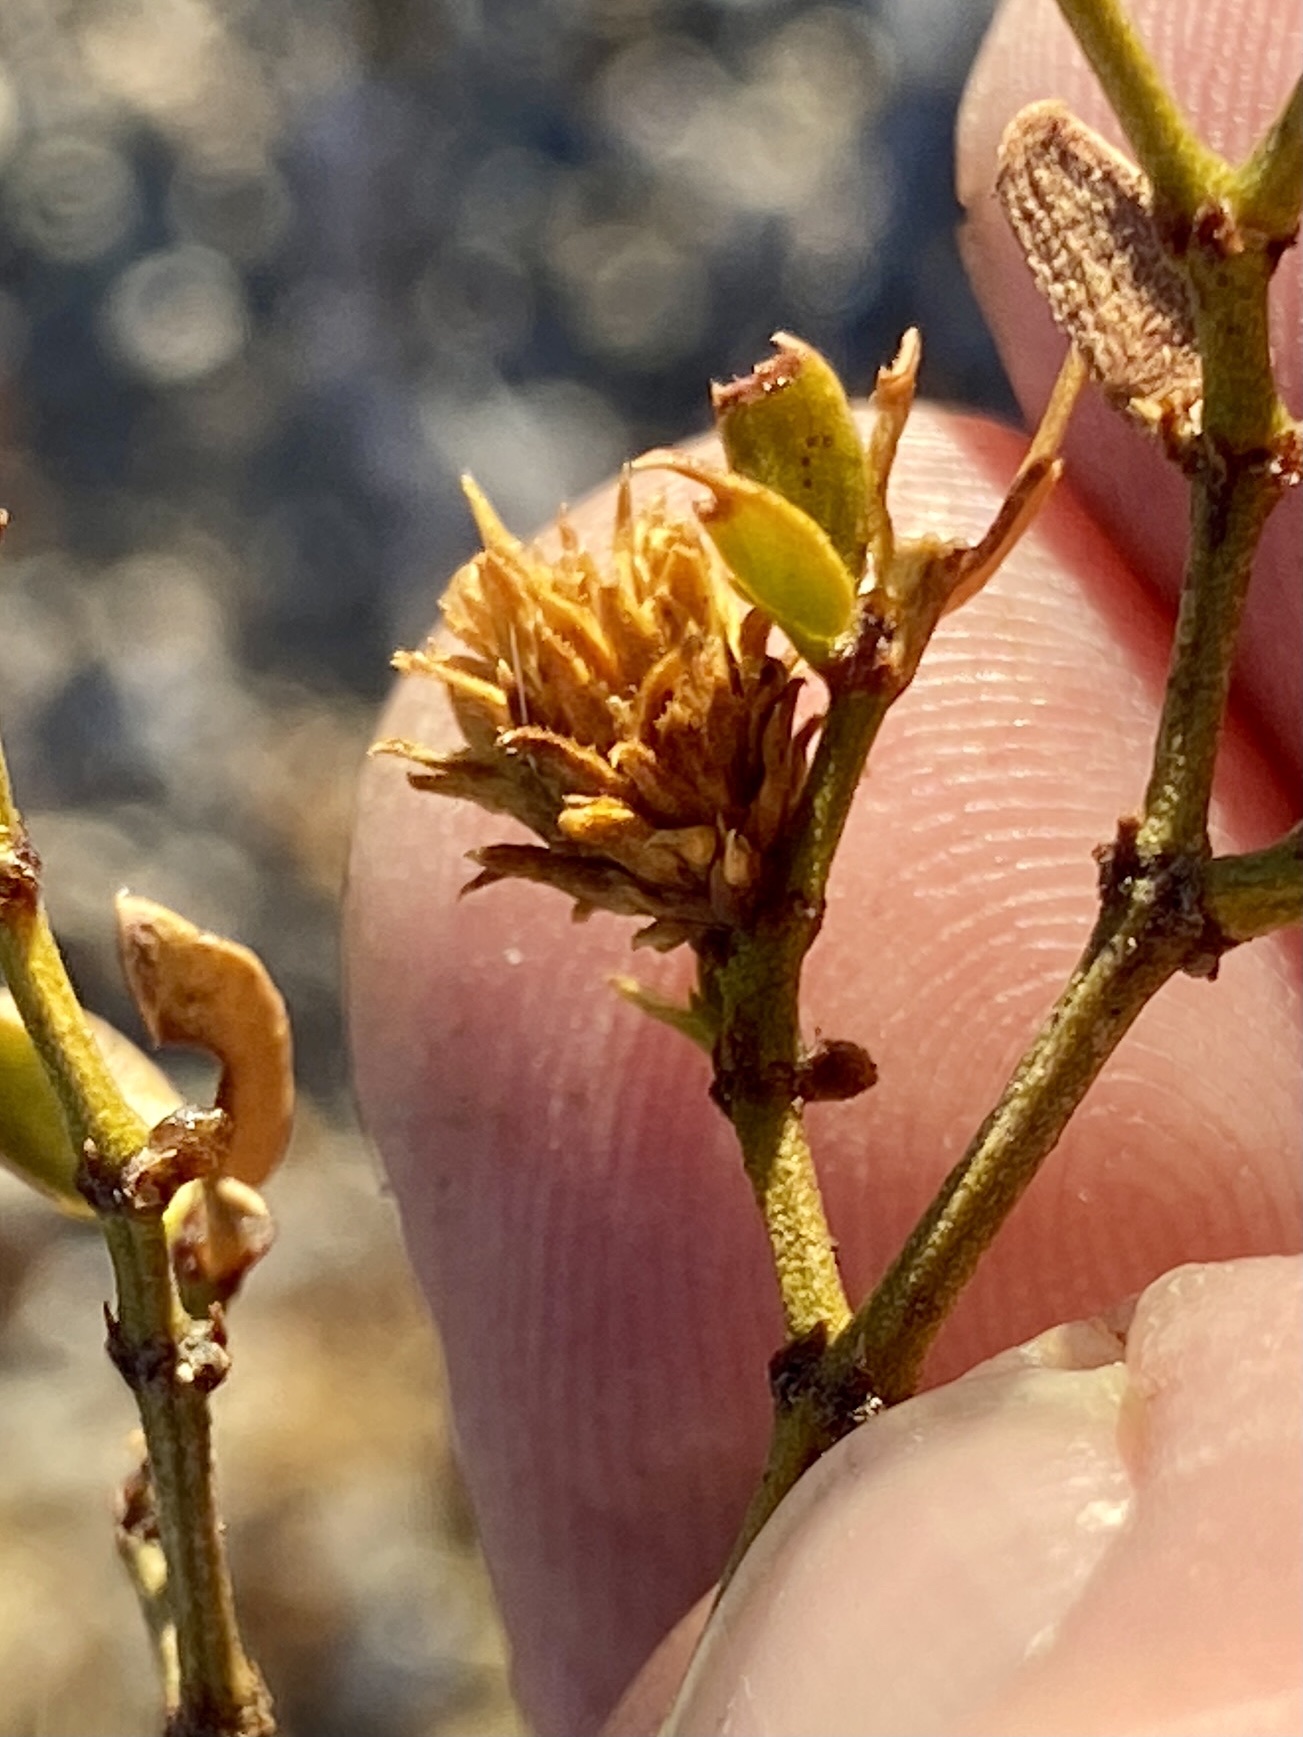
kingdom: Animalia
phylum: Arthropoda
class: Insecta
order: Diptera
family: Cecidomyiidae
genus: Asphondylia
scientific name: Asphondylia rosetta
